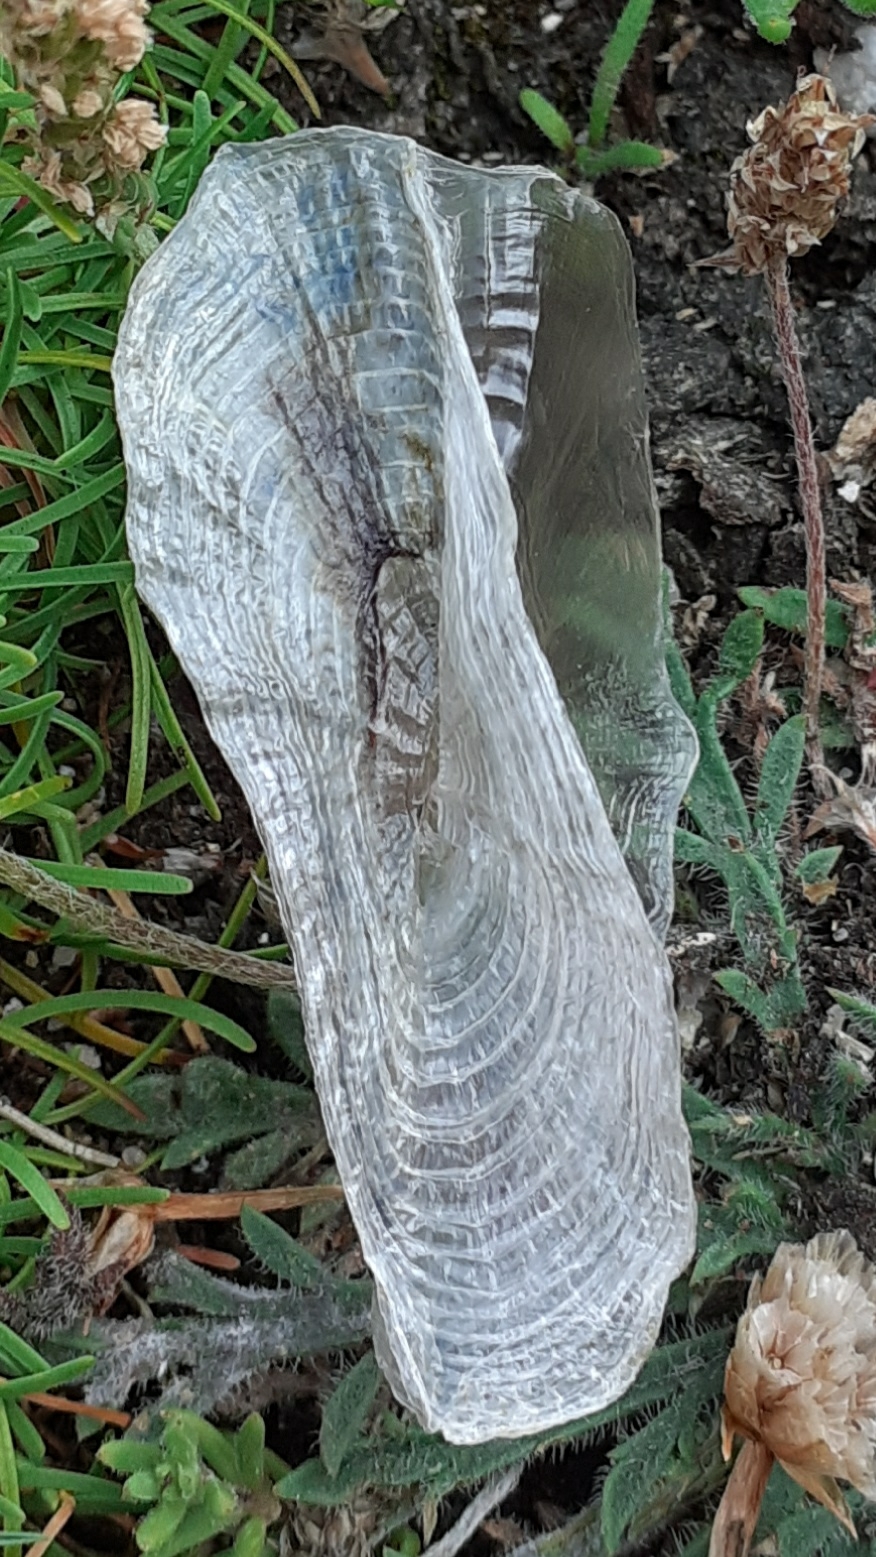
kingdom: Animalia
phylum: Cnidaria
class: Hydrozoa
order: Anthoathecata
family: Porpitidae
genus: Velella
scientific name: Velella velella
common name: By-the-wind-sailor
